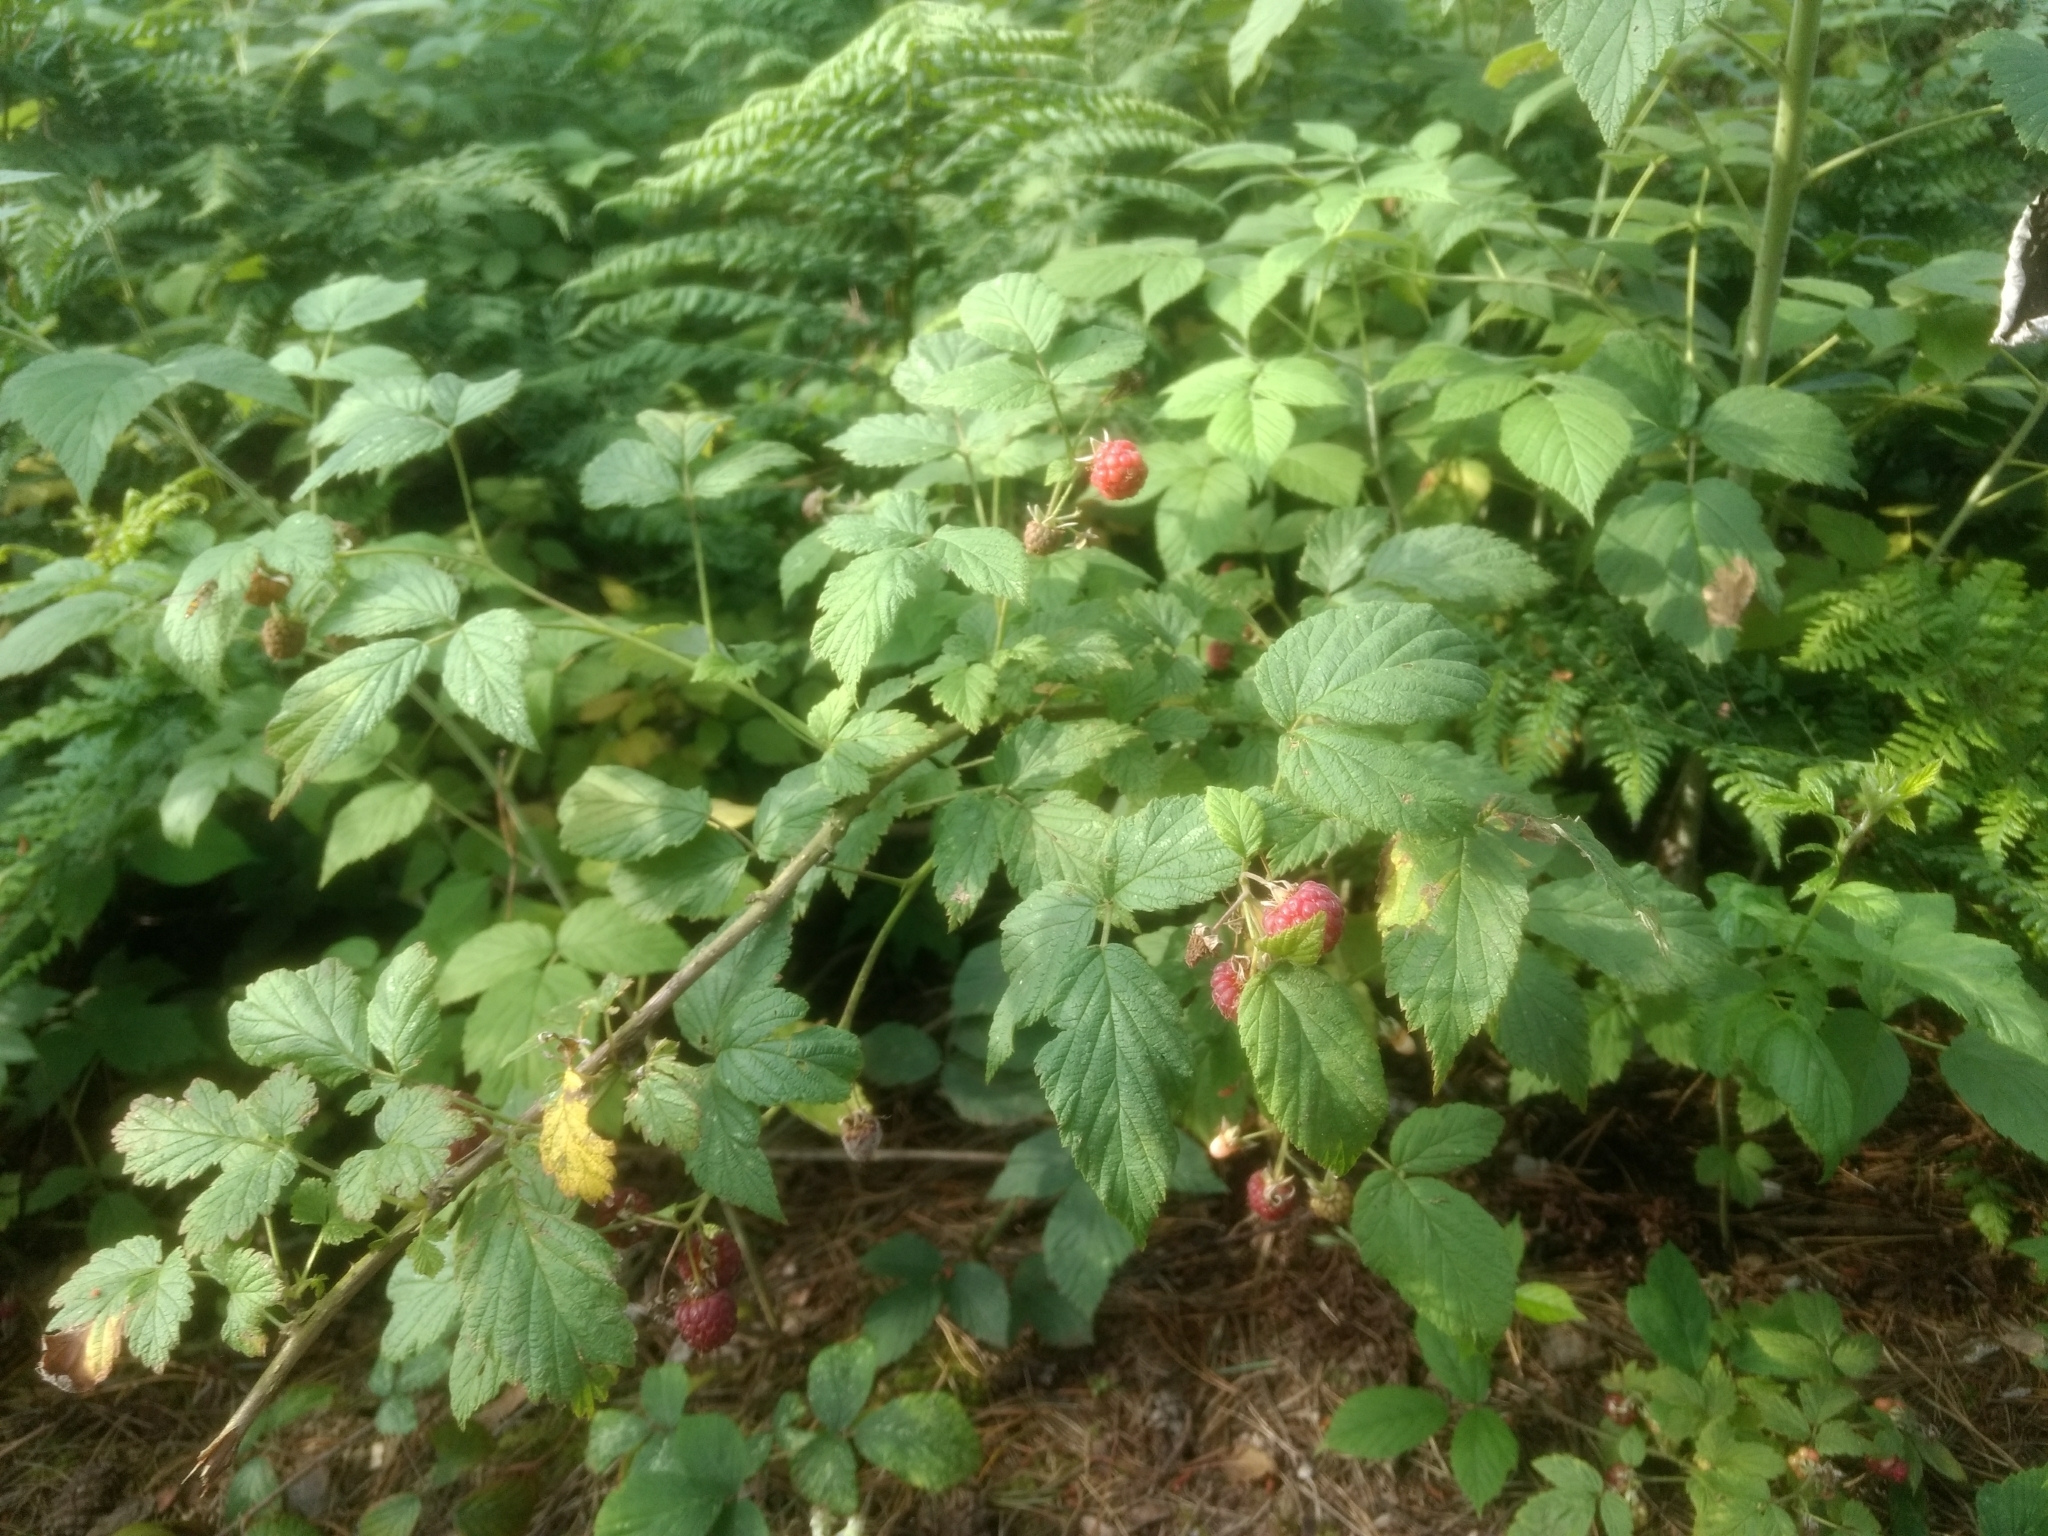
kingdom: Plantae
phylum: Tracheophyta
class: Magnoliopsida
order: Rosales
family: Rosaceae
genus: Rubus
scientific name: Rubus idaeus
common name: Raspberry
